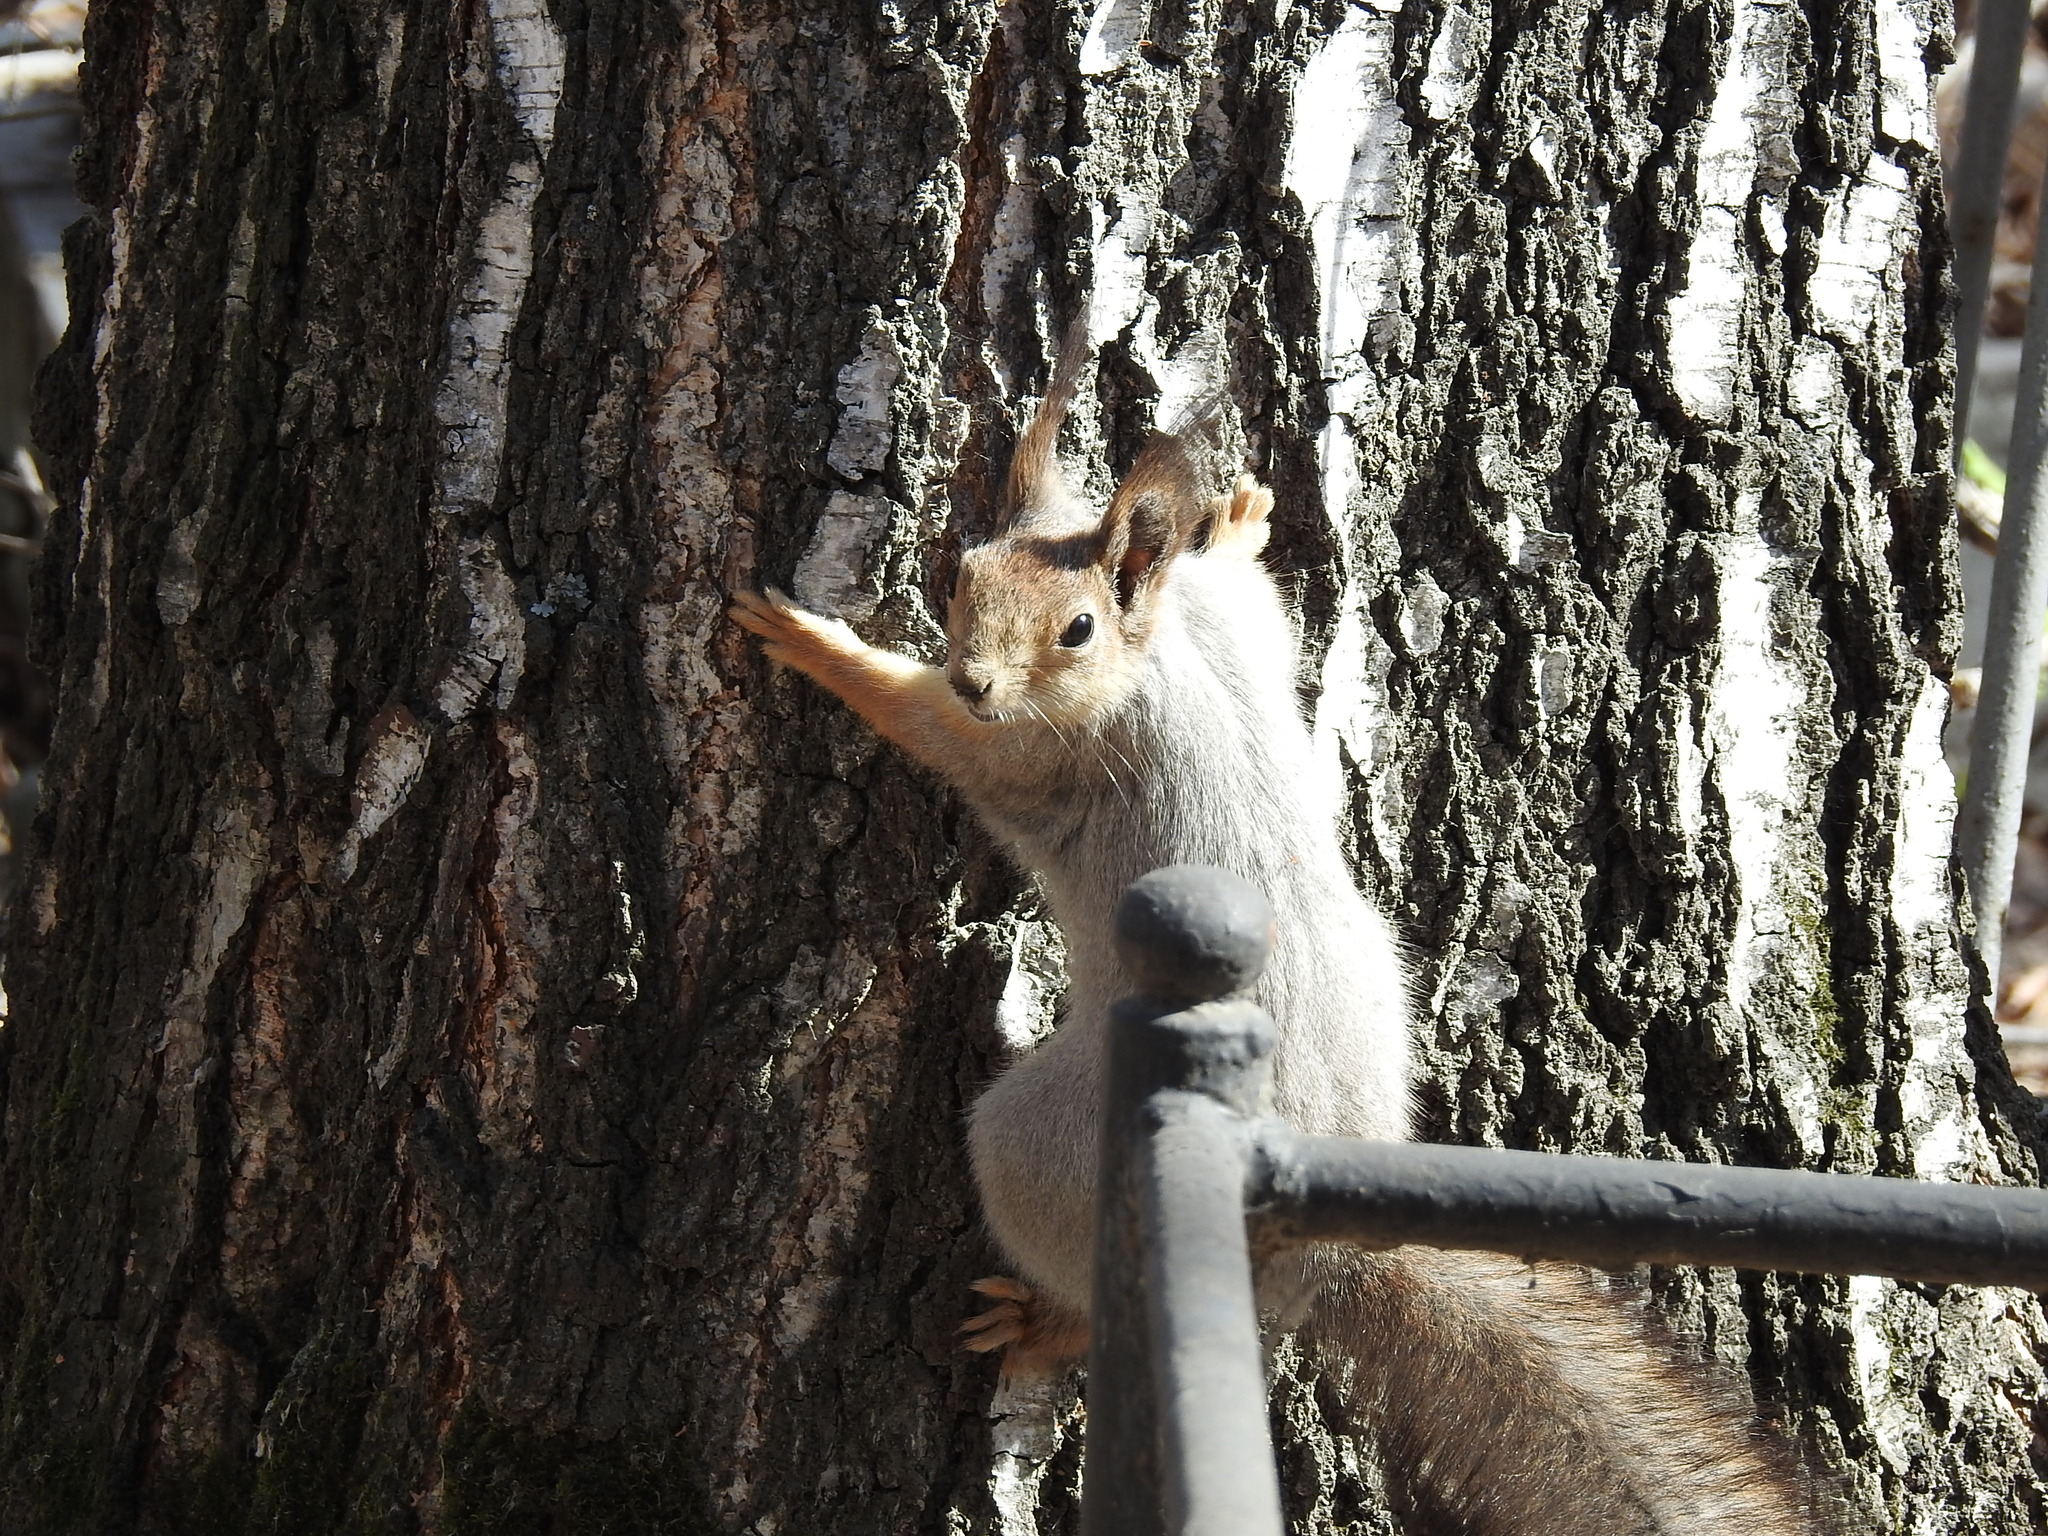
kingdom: Animalia
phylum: Chordata
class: Mammalia
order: Rodentia
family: Sciuridae
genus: Sciurus
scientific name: Sciurus vulgaris
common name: Eurasian red squirrel
